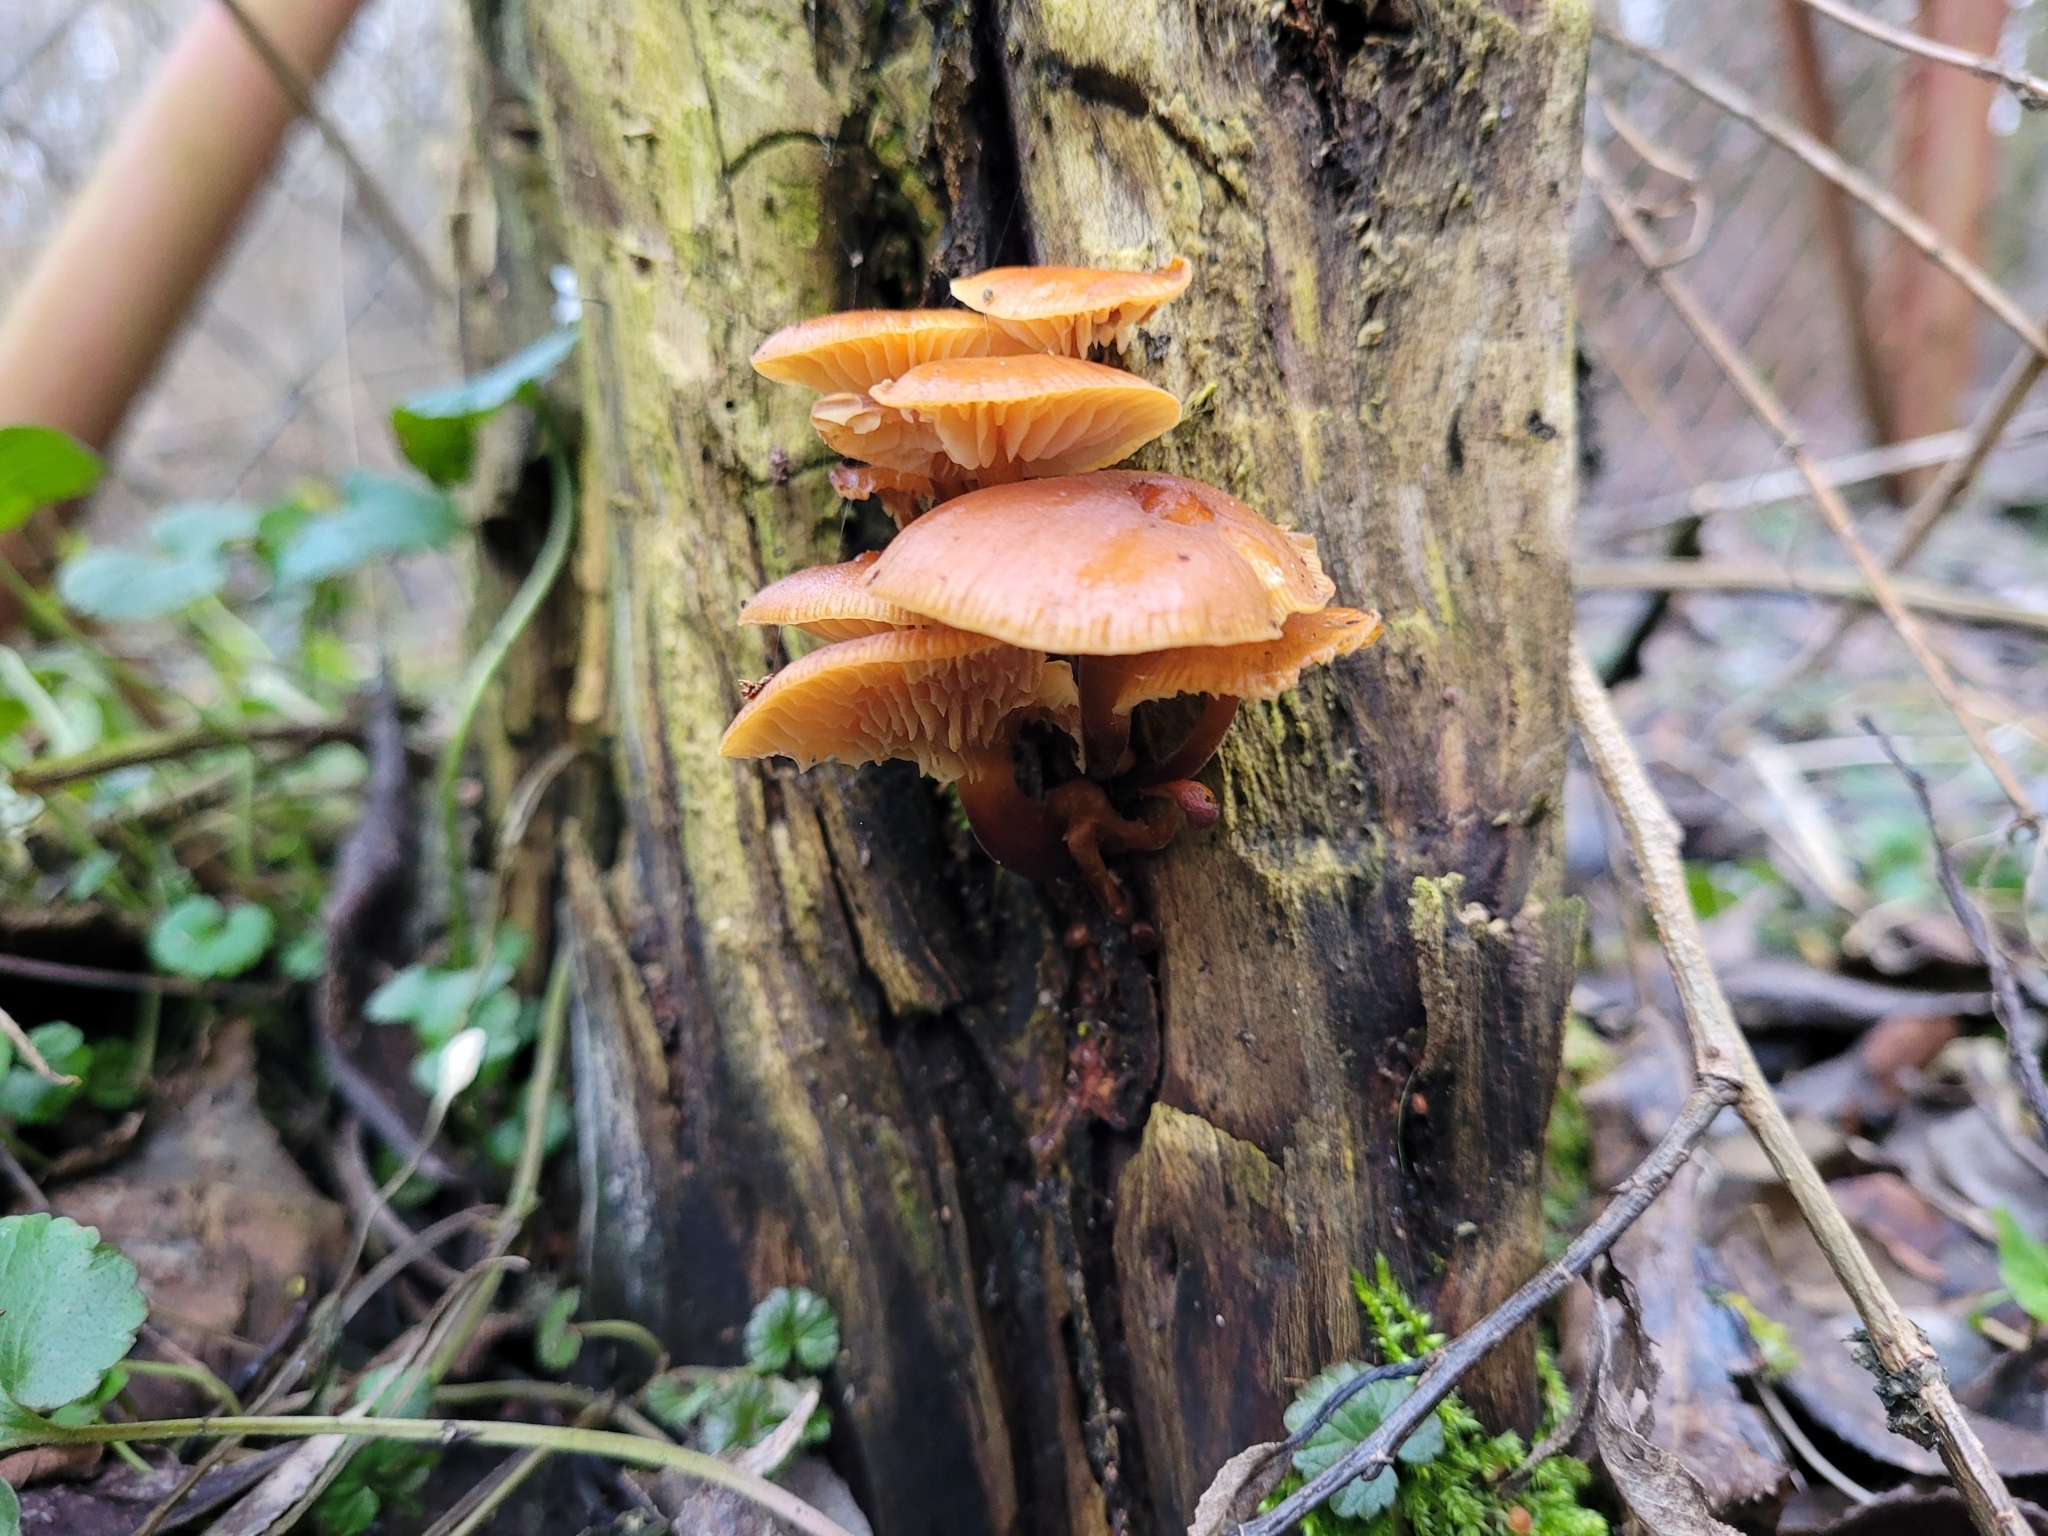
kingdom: Fungi
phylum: Basidiomycota
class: Agaricomycetes
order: Agaricales
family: Physalacriaceae
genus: Flammulina
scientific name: Flammulina
